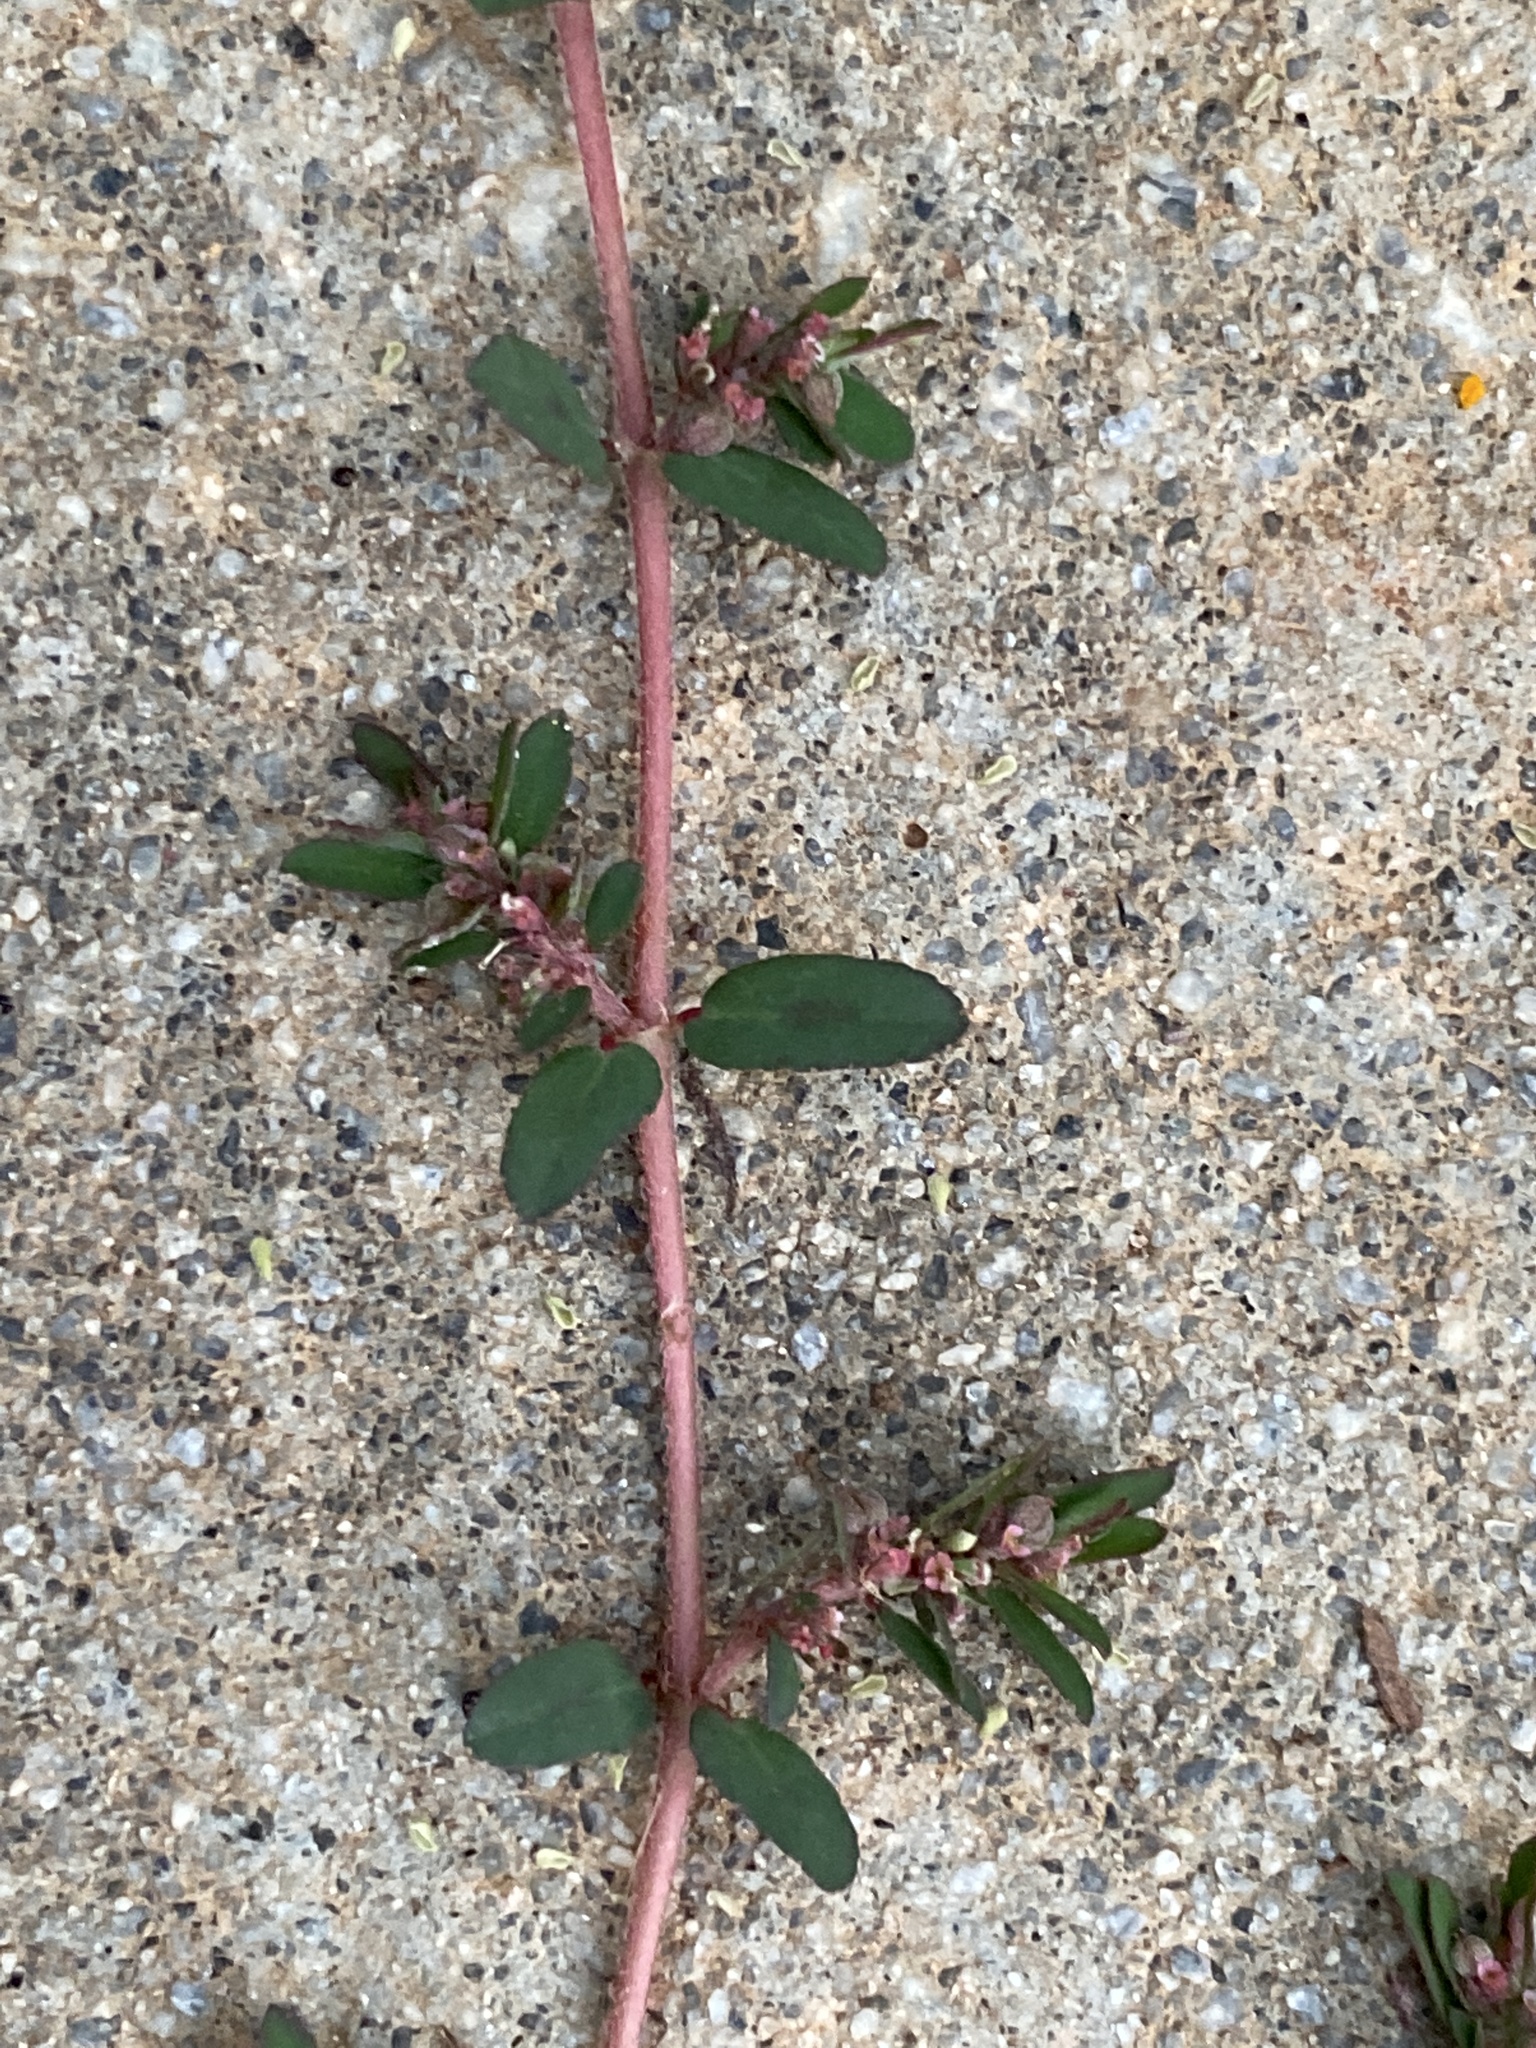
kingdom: Plantae
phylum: Tracheophyta
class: Magnoliopsida
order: Malpighiales
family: Euphorbiaceae
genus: Euphorbia
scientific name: Euphorbia maculata
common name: Spotted spurge
